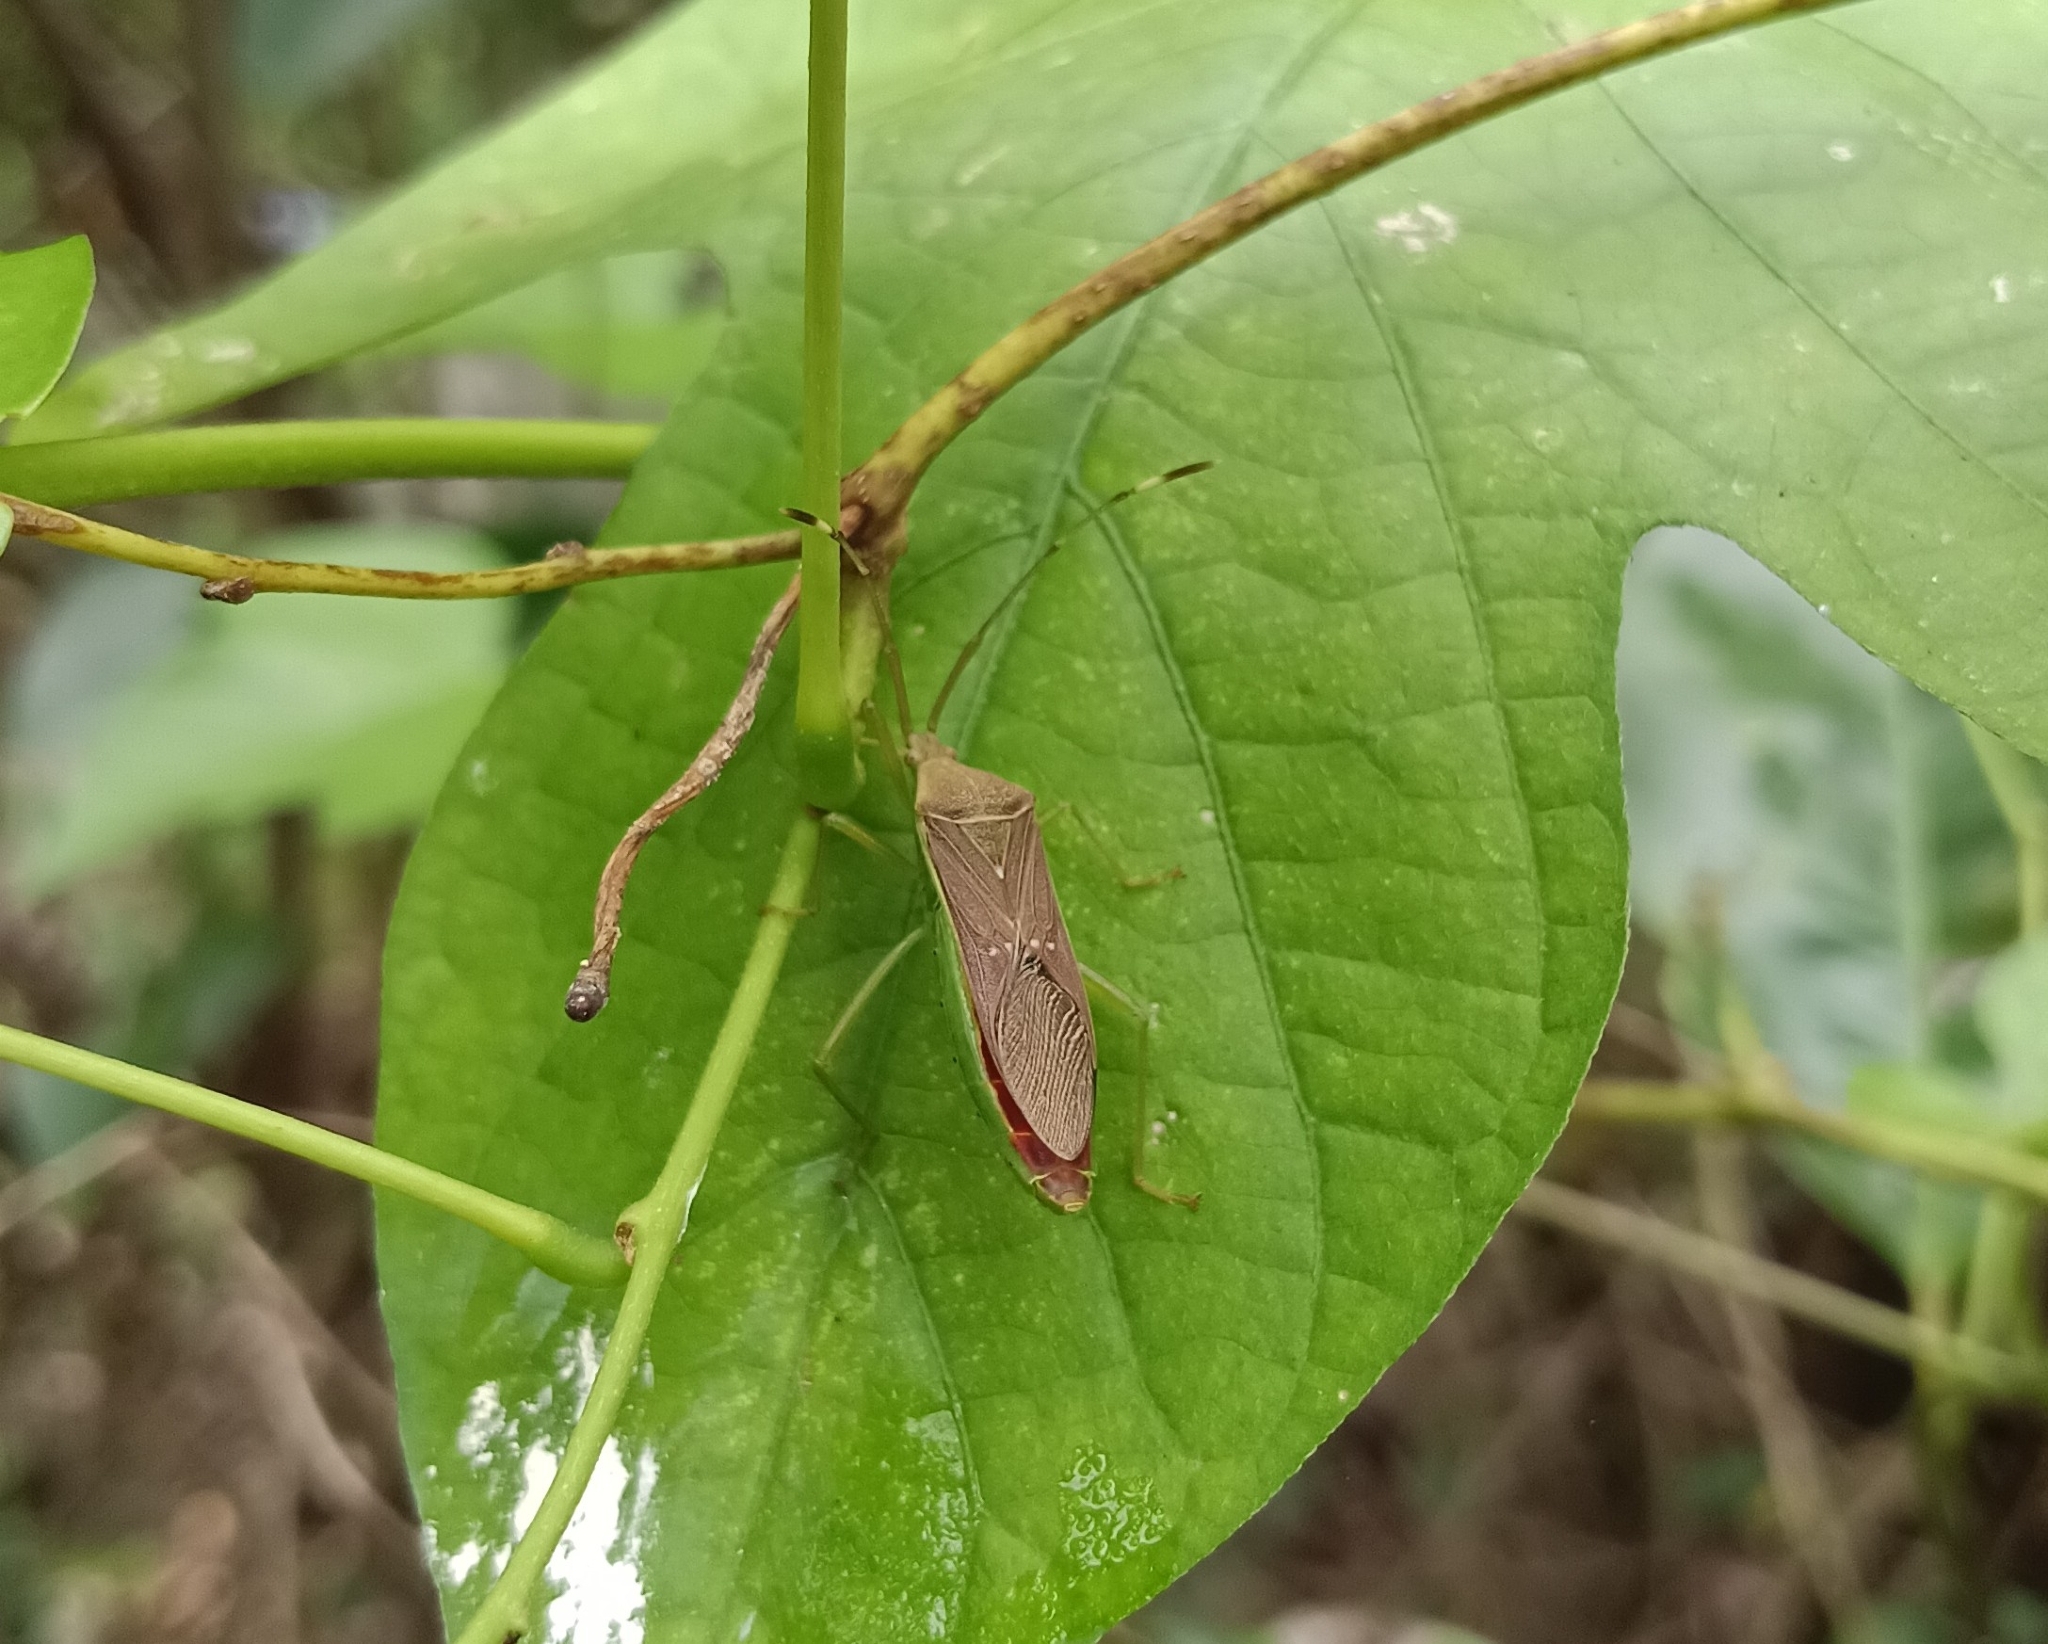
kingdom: Animalia
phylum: Arthropoda
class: Insecta
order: Hemiptera
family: Coreidae
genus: Homoeocerus
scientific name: Homoeocerus relatus
